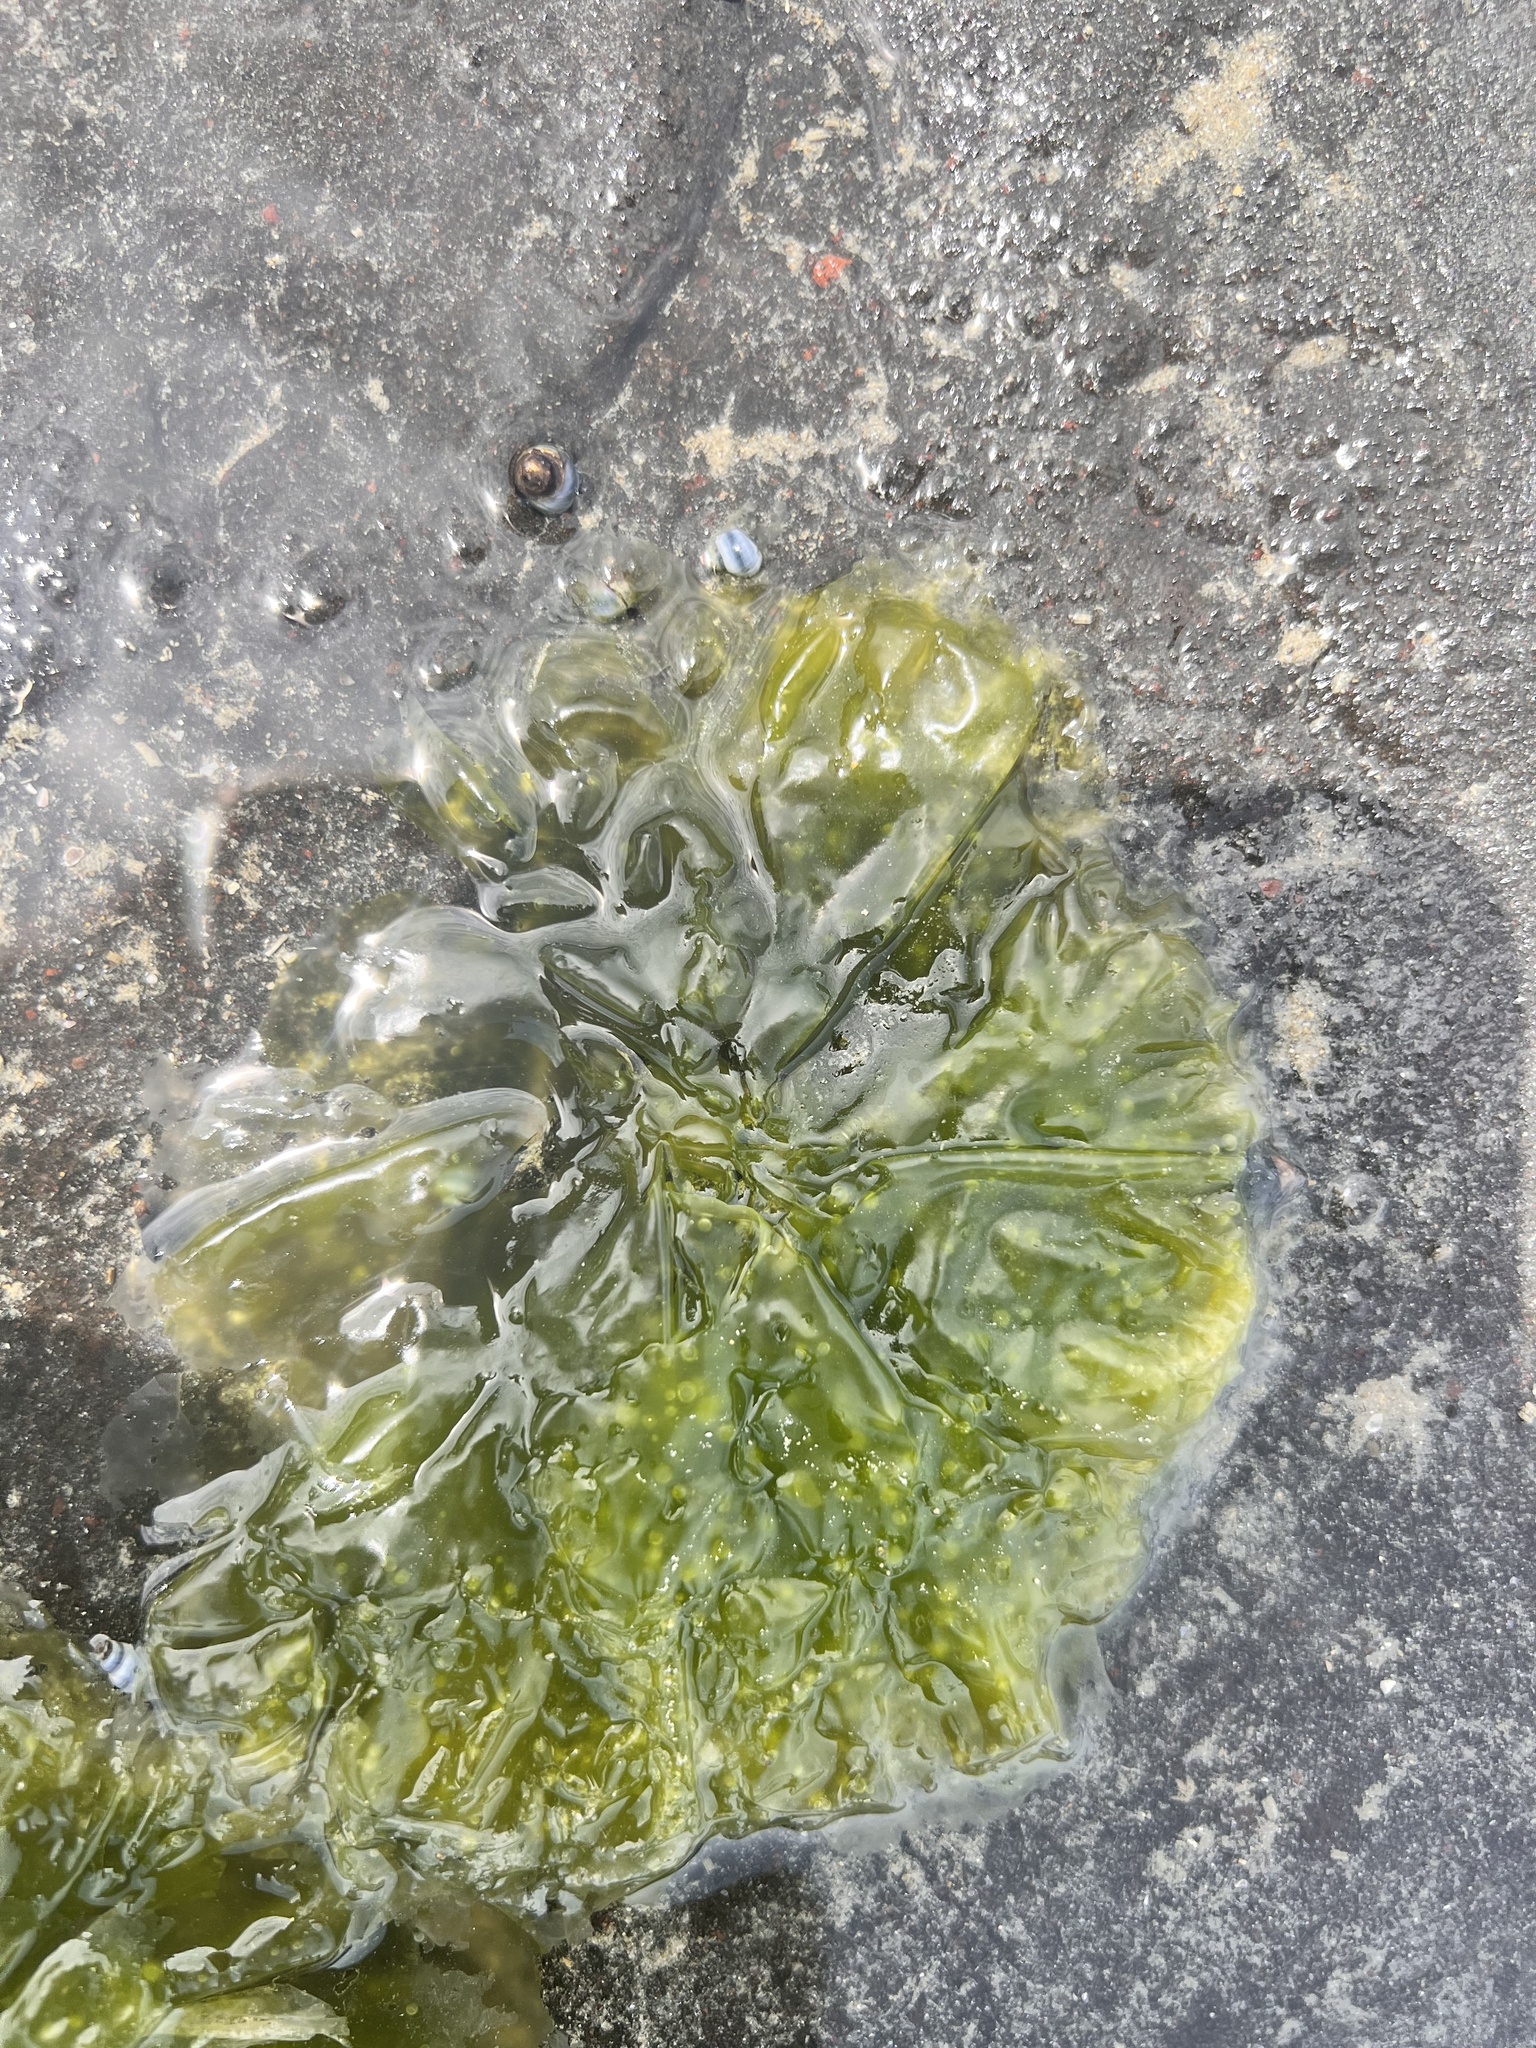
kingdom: Plantae
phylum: Chlorophyta
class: Ulvophyceae
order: Ulvales
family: Ulvaceae
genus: Ulva
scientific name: Ulva
